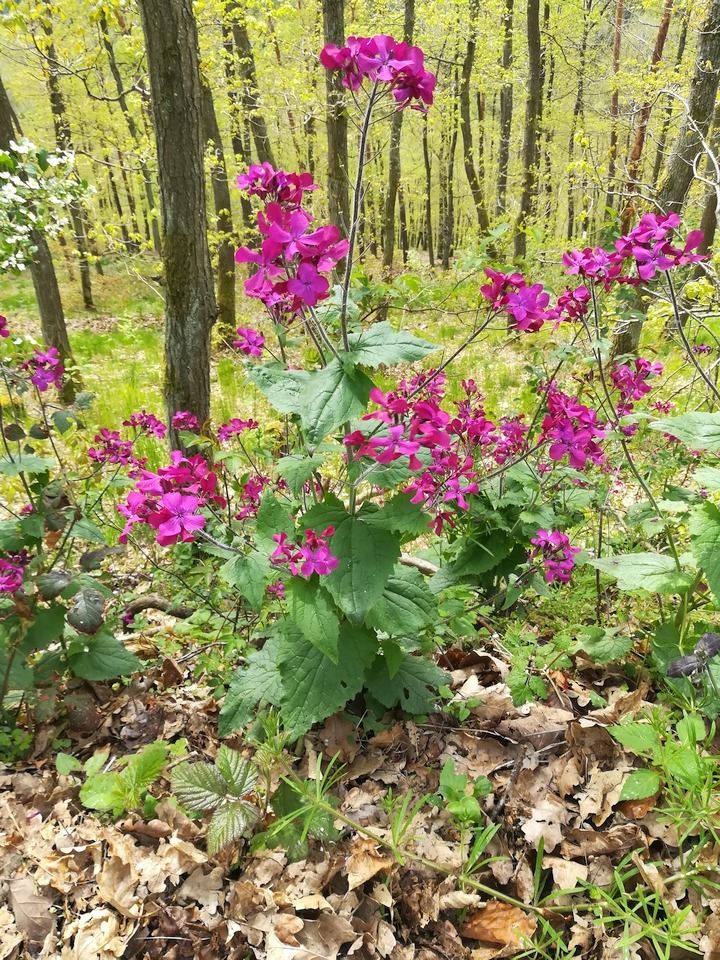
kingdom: Plantae
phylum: Tracheophyta
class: Magnoliopsida
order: Brassicales
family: Brassicaceae
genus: Lunaria
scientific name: Lunaria annua
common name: Honesty
